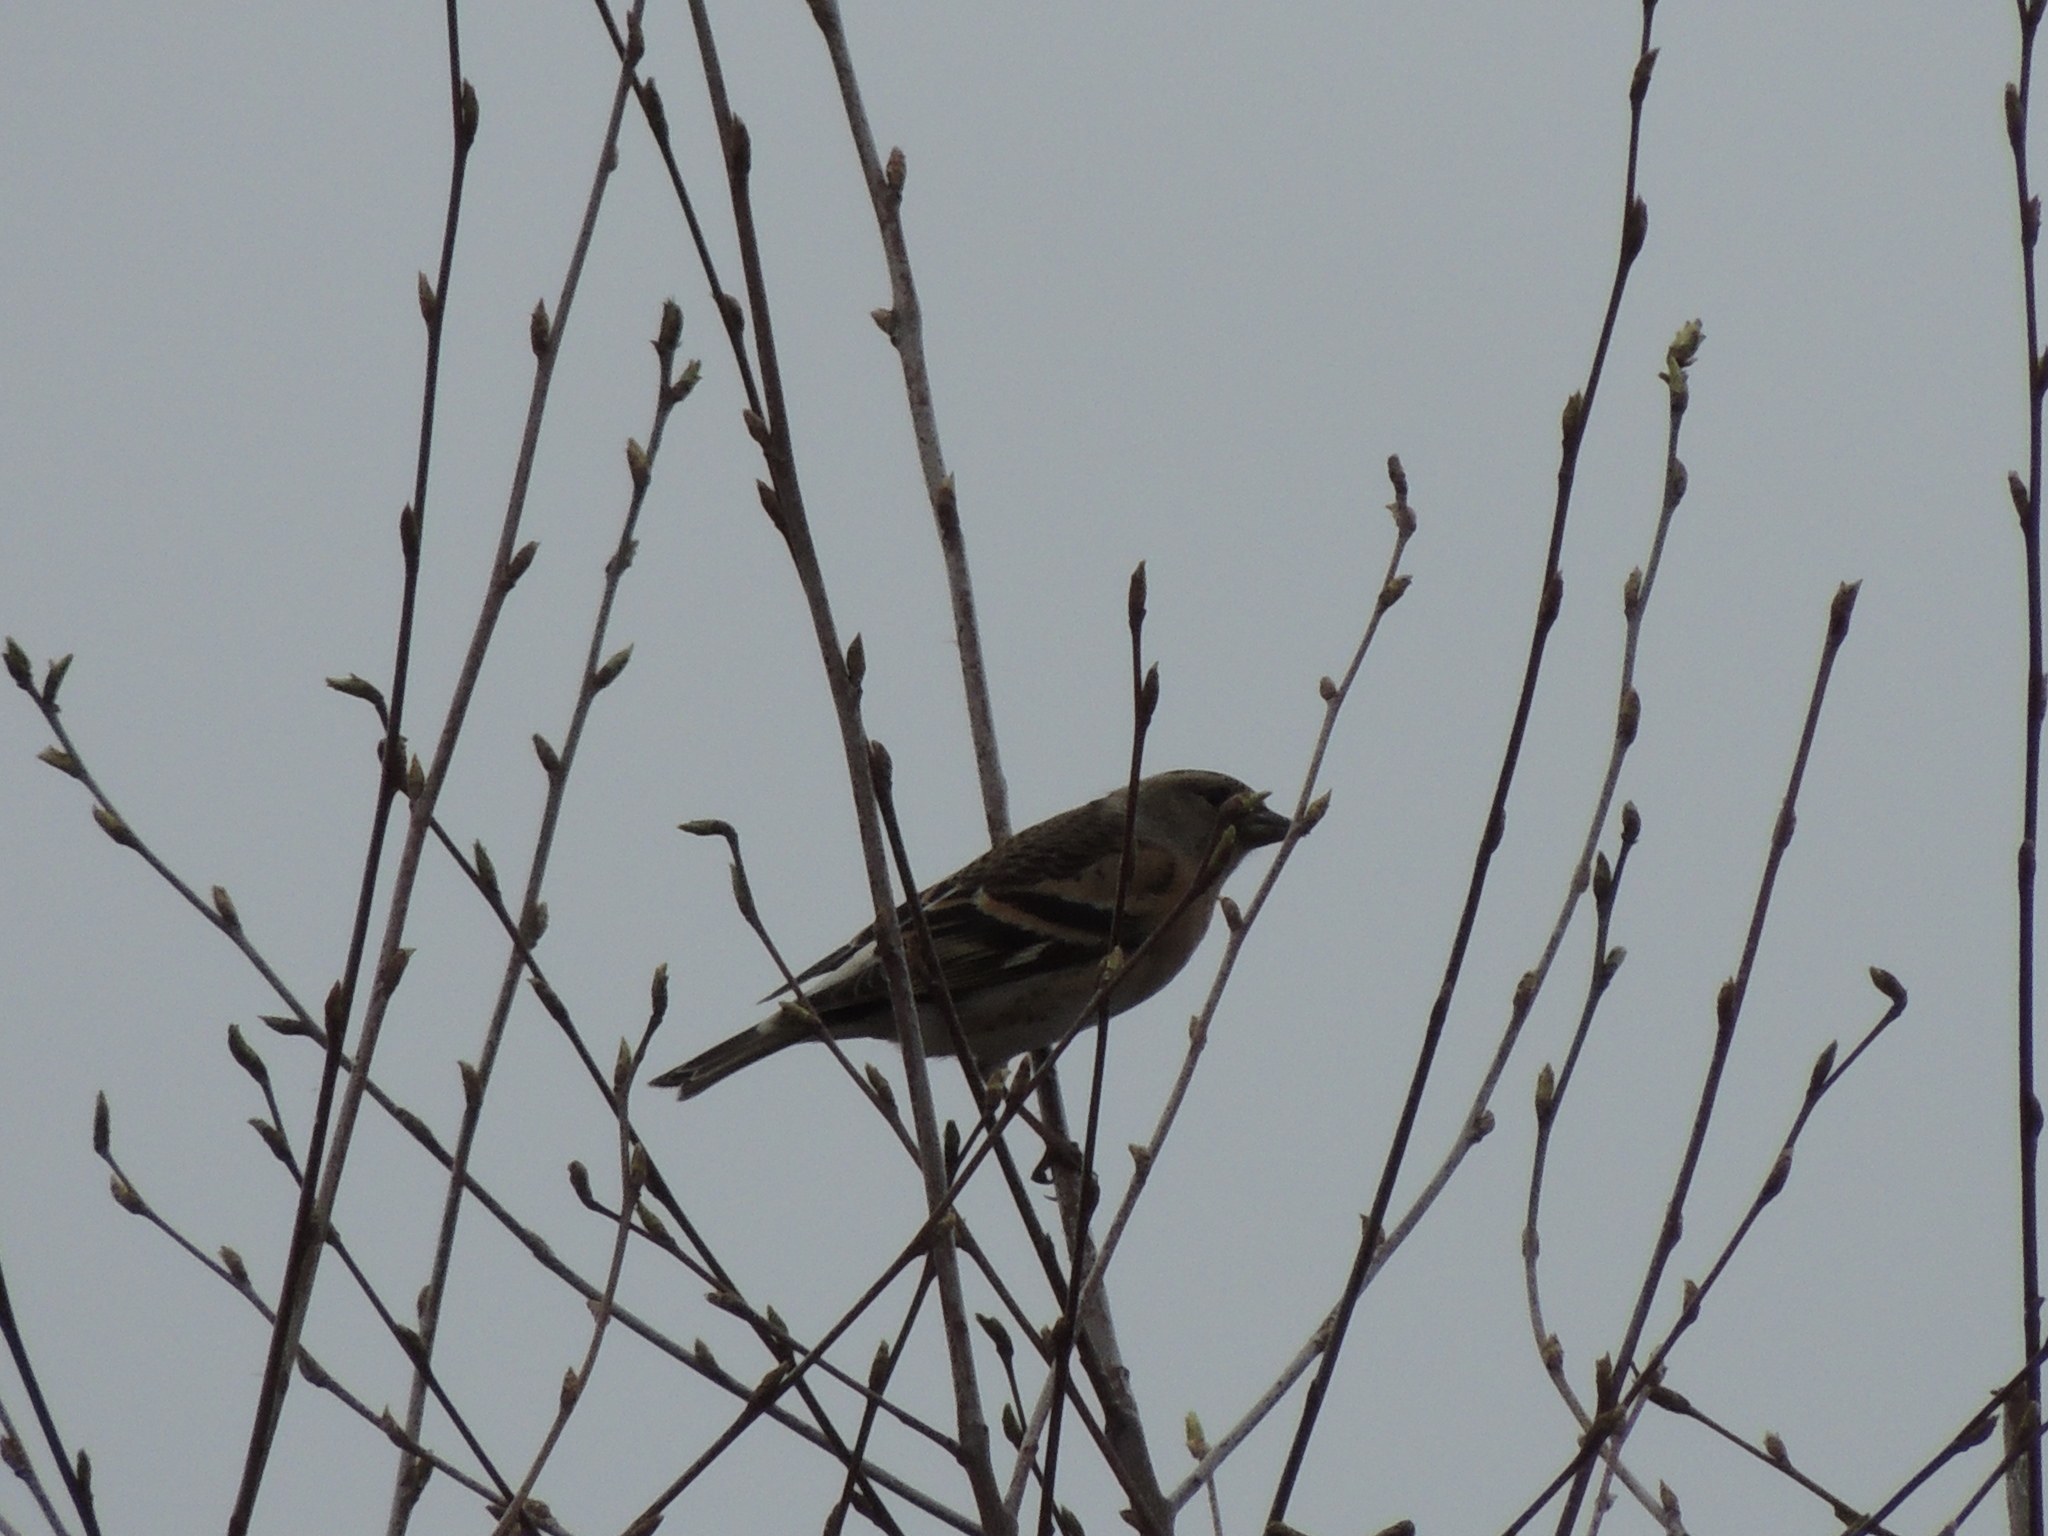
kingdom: Animalia
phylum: Chordata
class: Aves
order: Passeriformes
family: Fringillidae
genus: Fringilla
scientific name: Fringilla montifringilla
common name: Brambling
